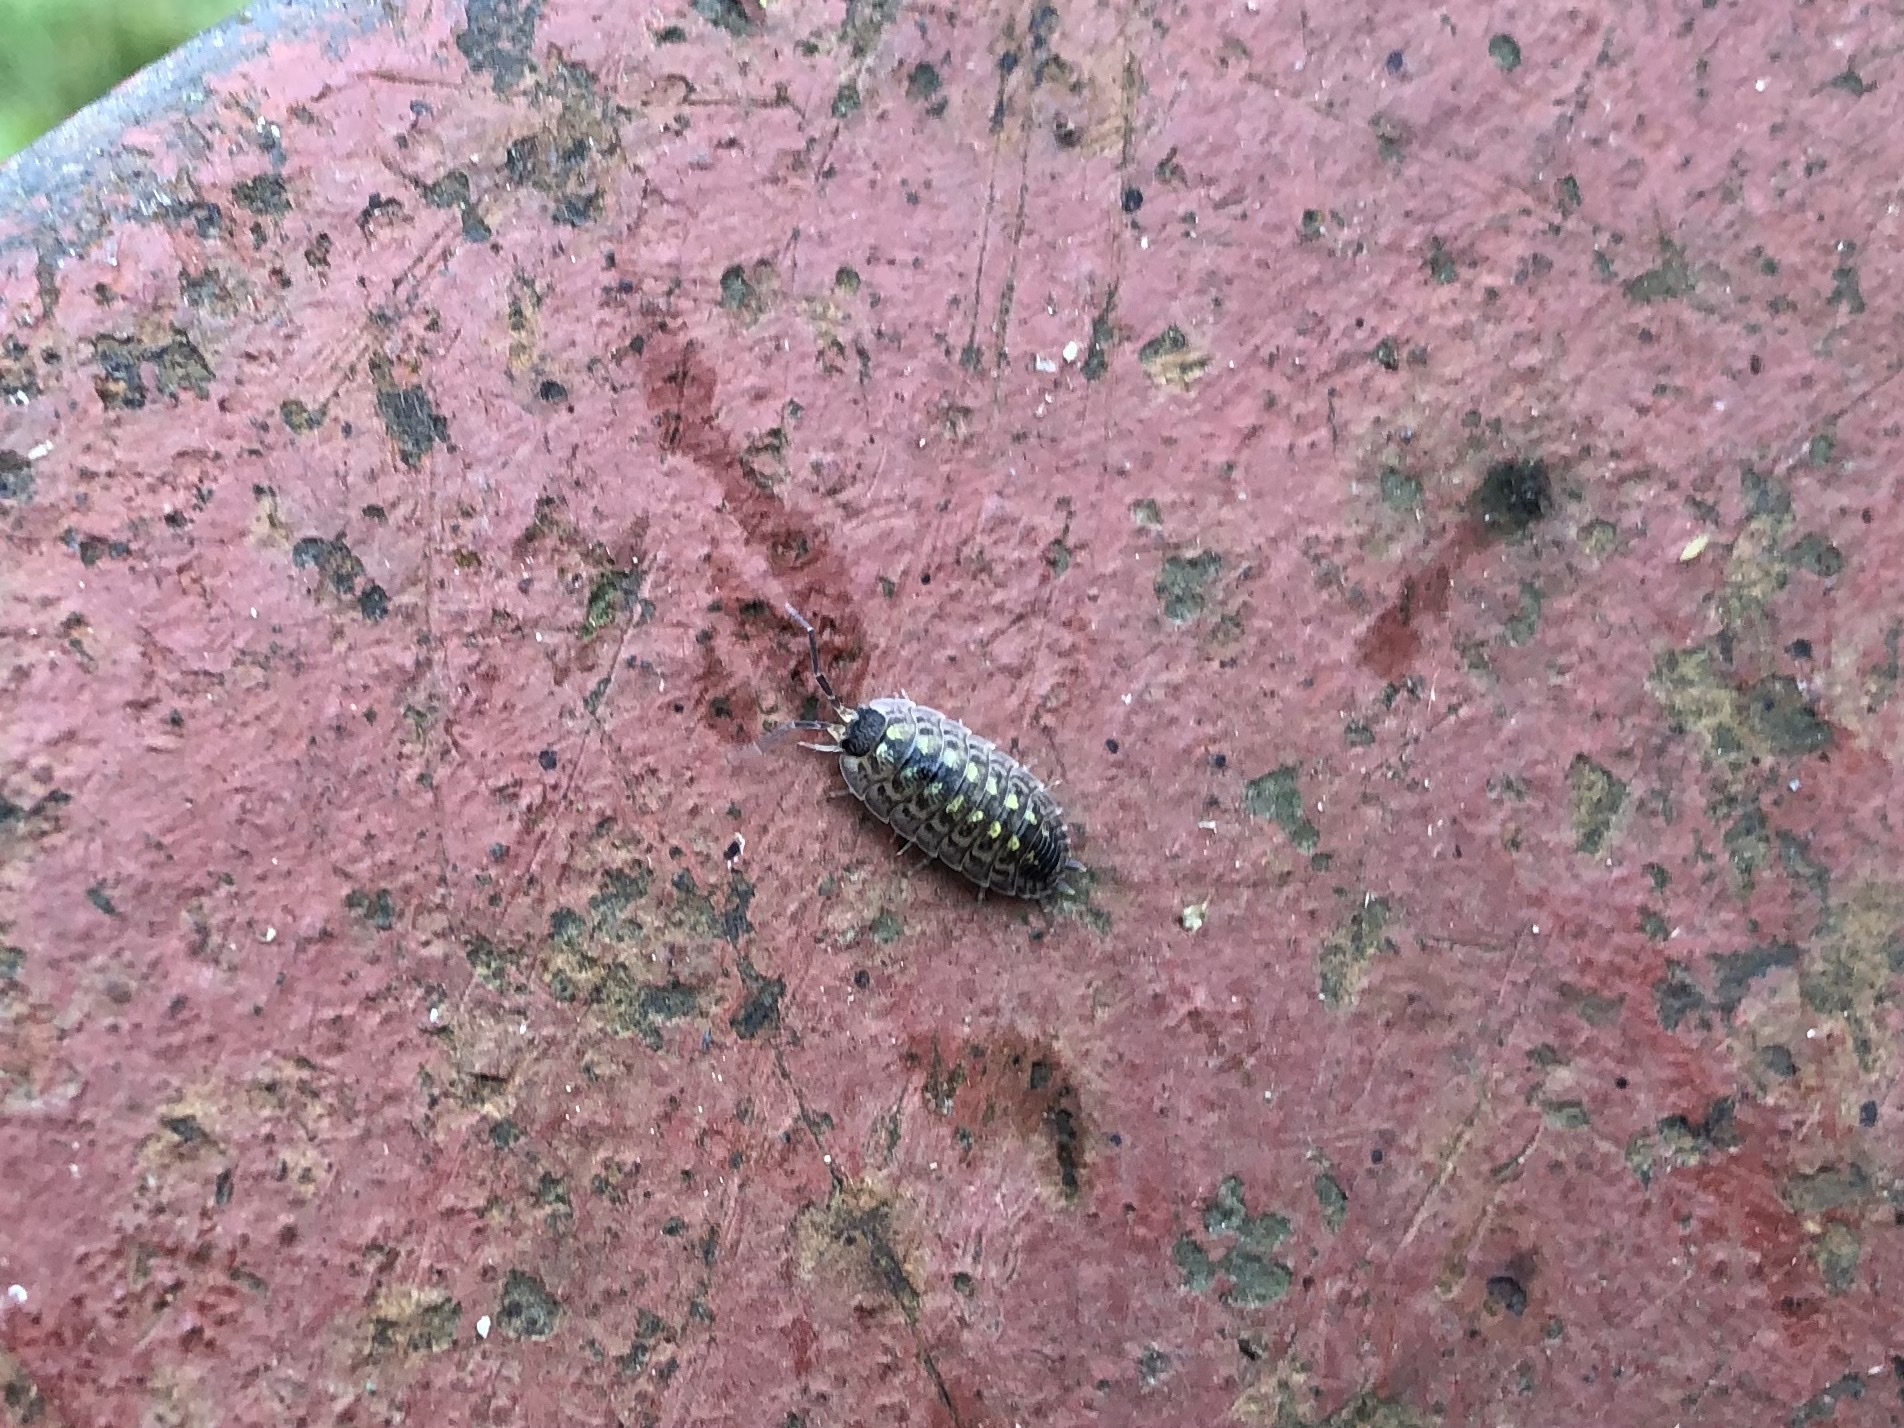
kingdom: Animalia
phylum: Arthropoda
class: Malacostraca
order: Isopoda
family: Porcellionidae
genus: Porcellio
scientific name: Porcellio spinicornis
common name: Painted woodlouse
